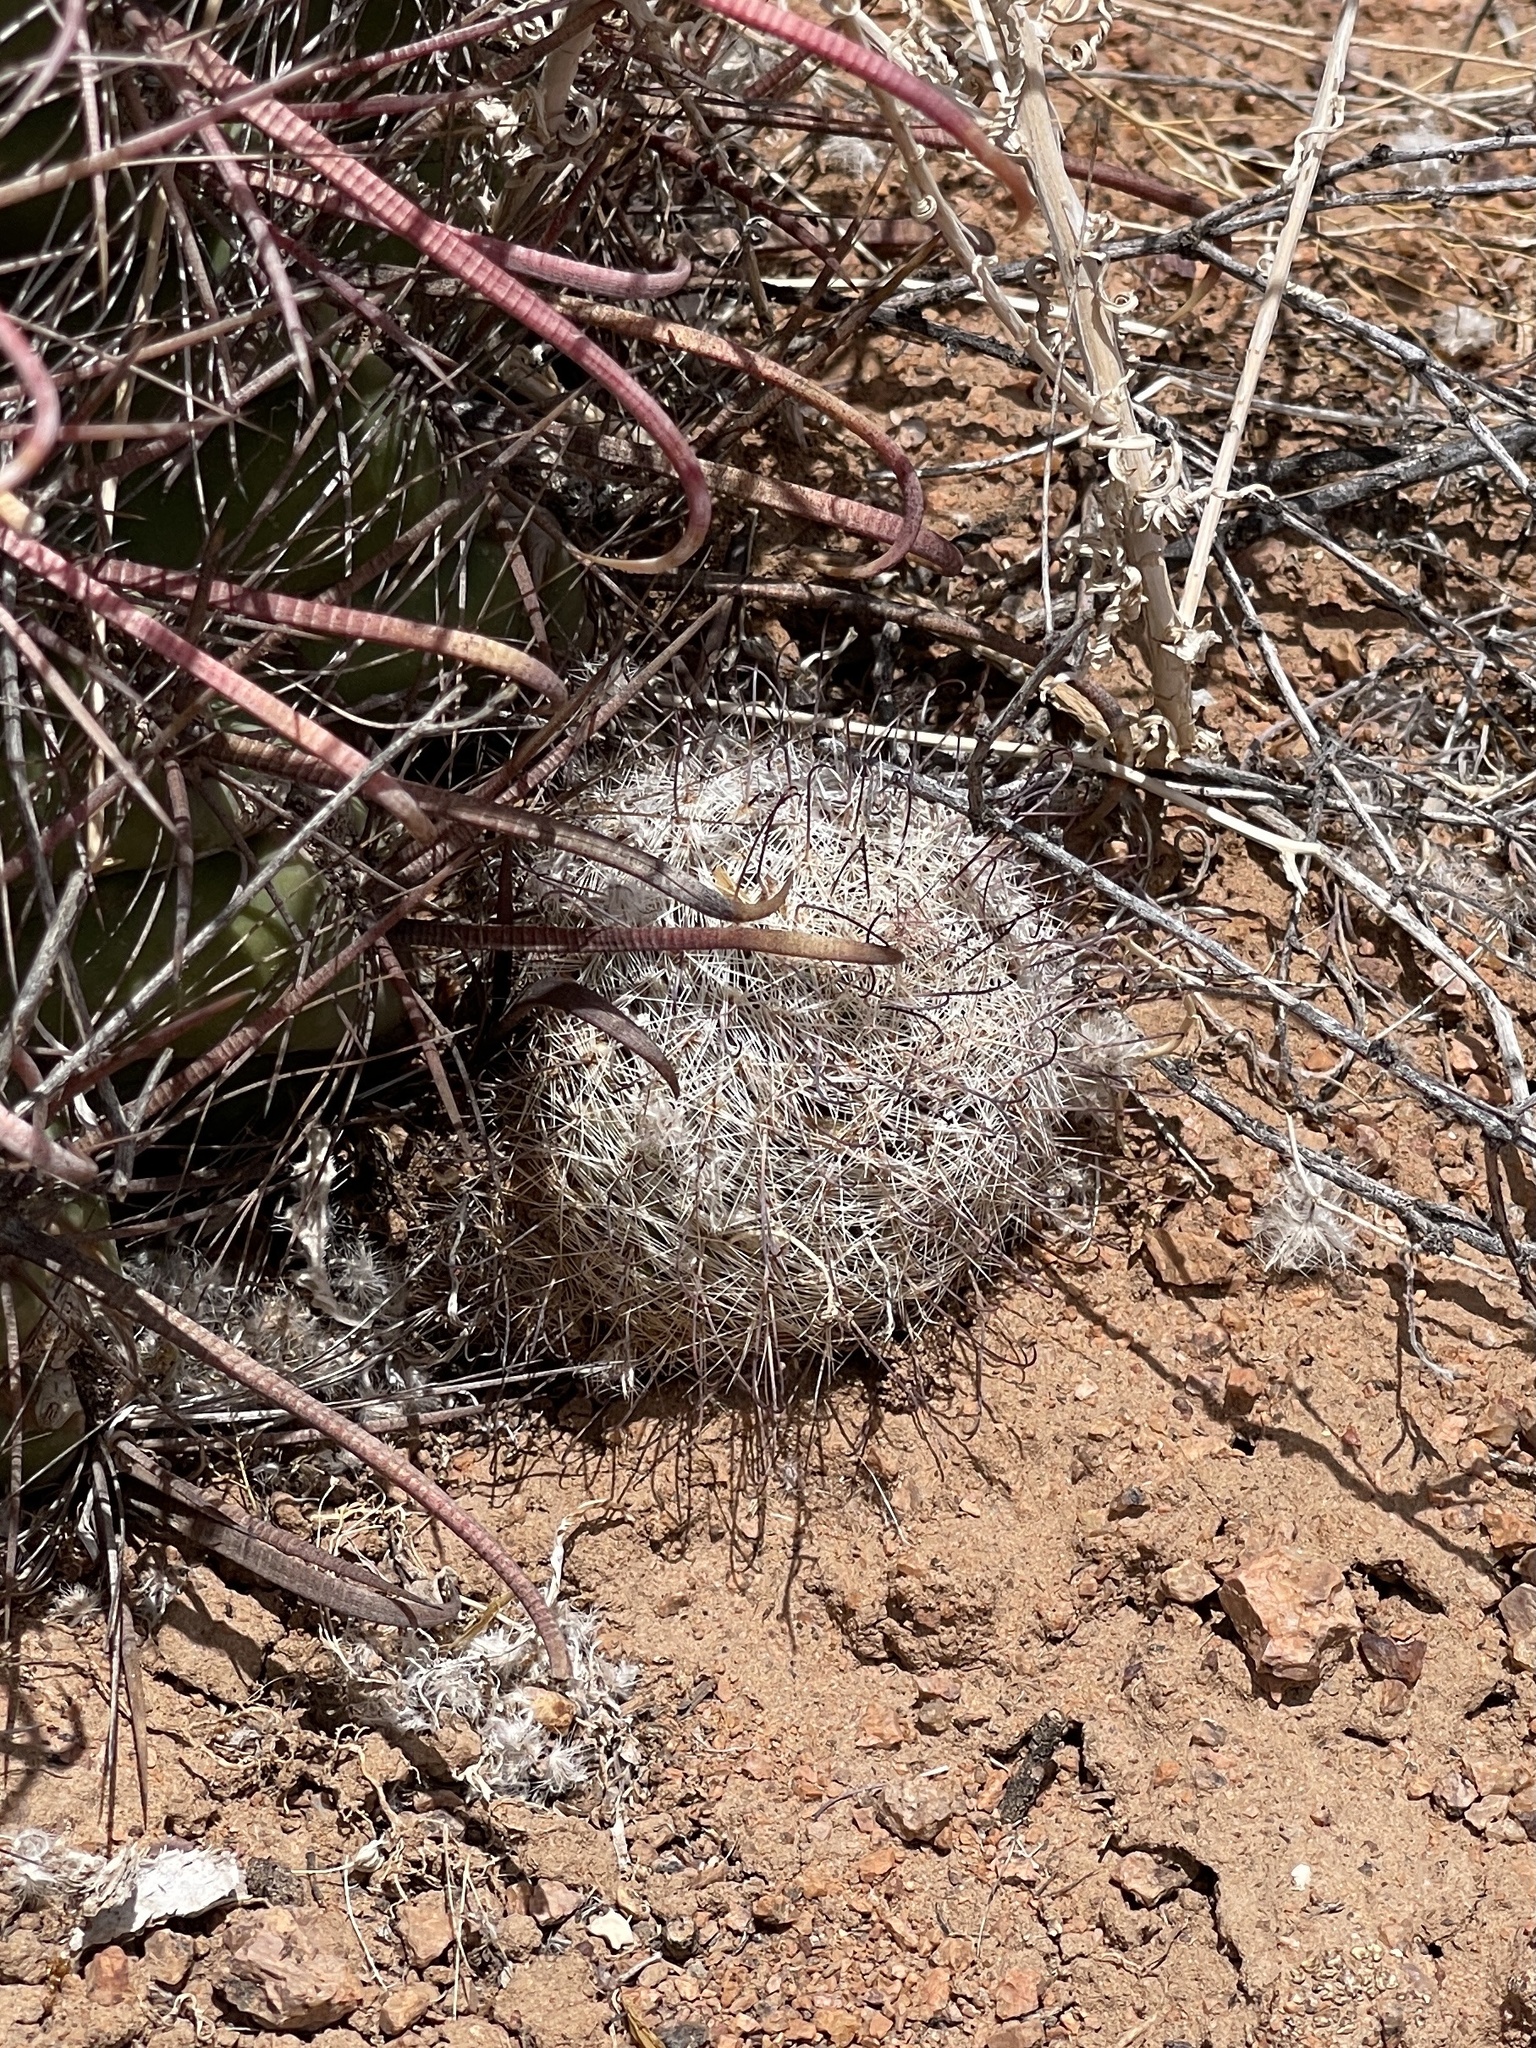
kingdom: Plantae
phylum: Tracheophyta
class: Magnoliopsida
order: Caryophyllales
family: Cactaceae
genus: Cochemiea
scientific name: Cochemiea grahamii
